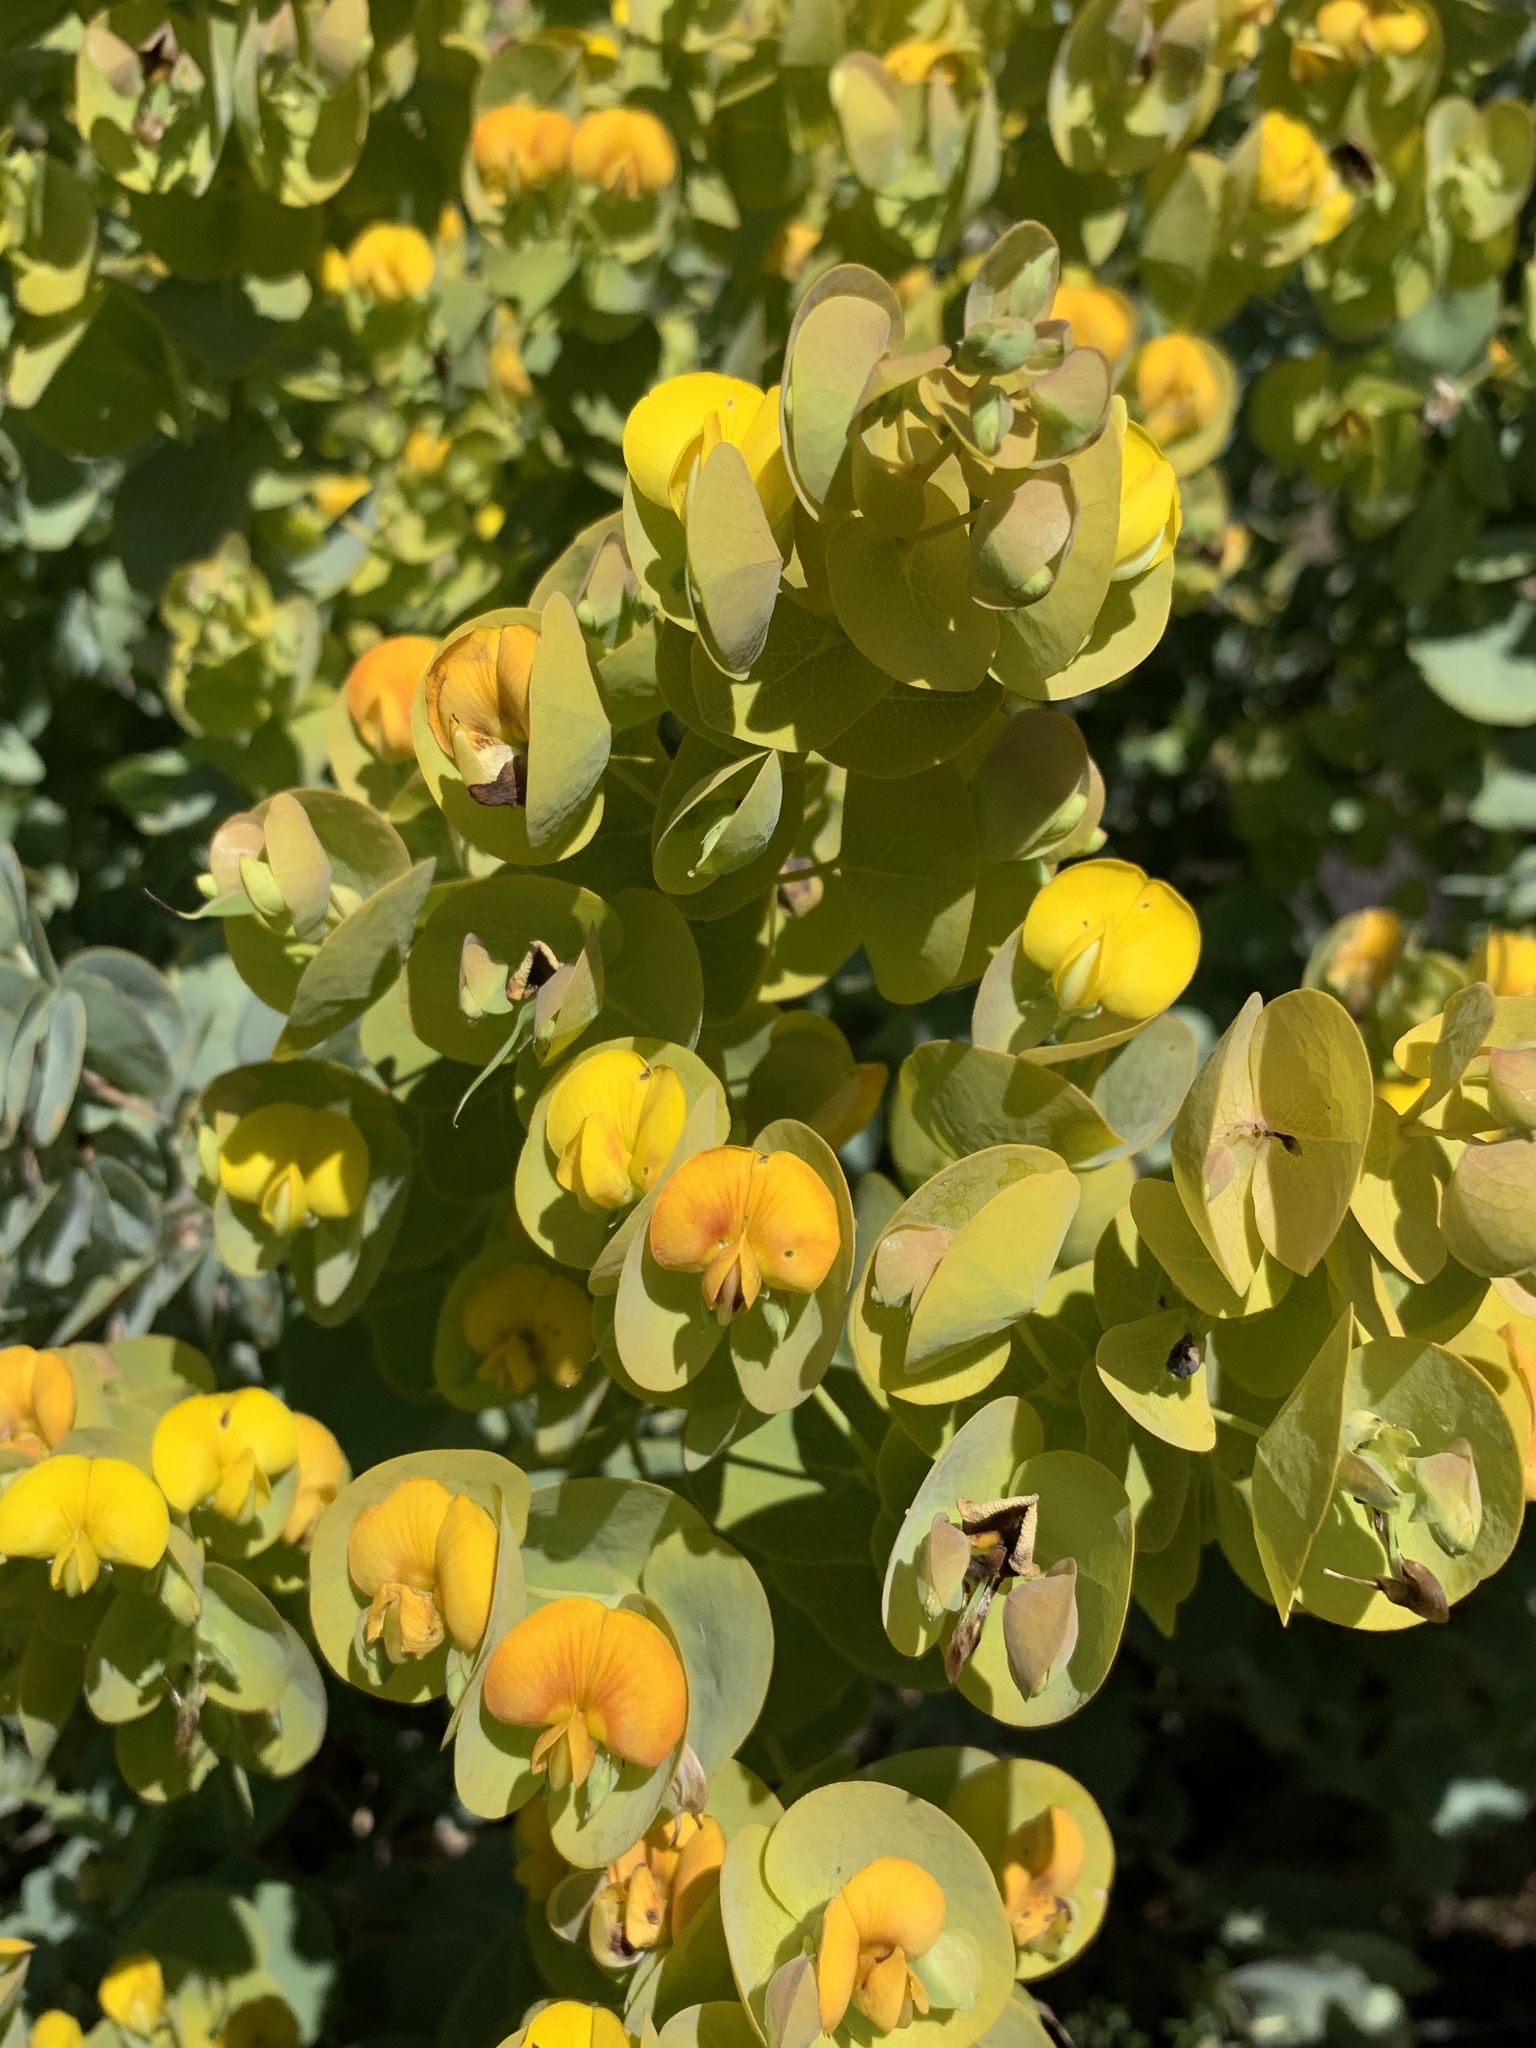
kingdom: Plantae
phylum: Tracheophyta
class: Magnoliopsida
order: Fabales
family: Fabaceae
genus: Rafnia
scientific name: Rafnia amplexicaulis
